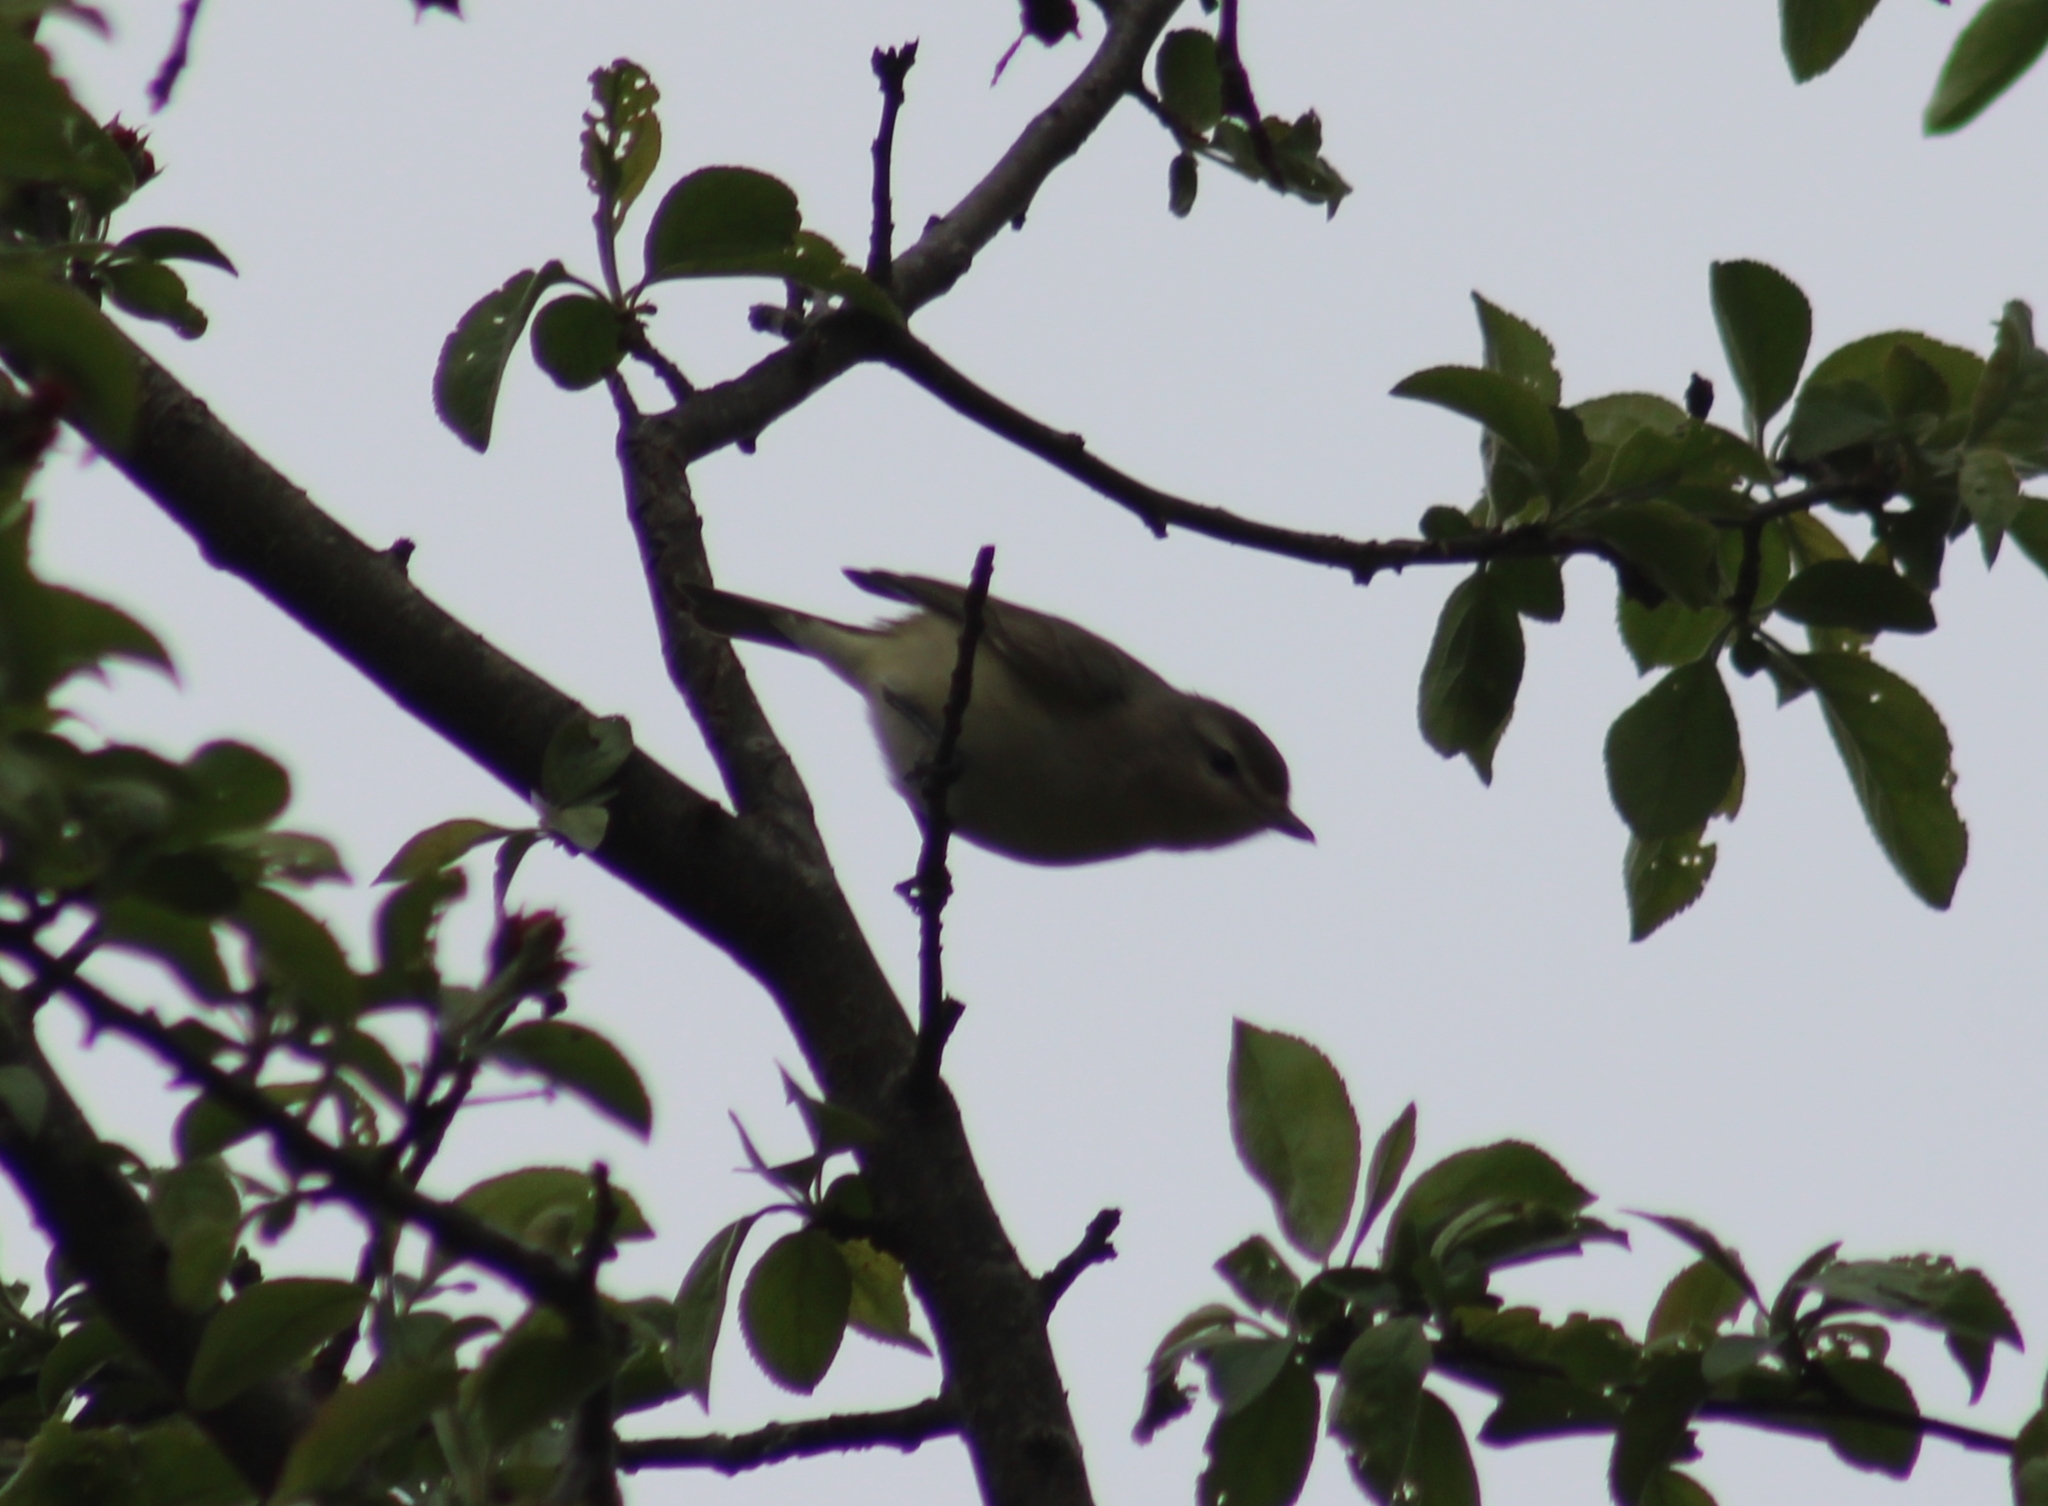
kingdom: Animalia
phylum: Chordata
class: Aves
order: Passeriformes
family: Vireonidae
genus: Vireo
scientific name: Vireo gilvus
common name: Warbling vireo
